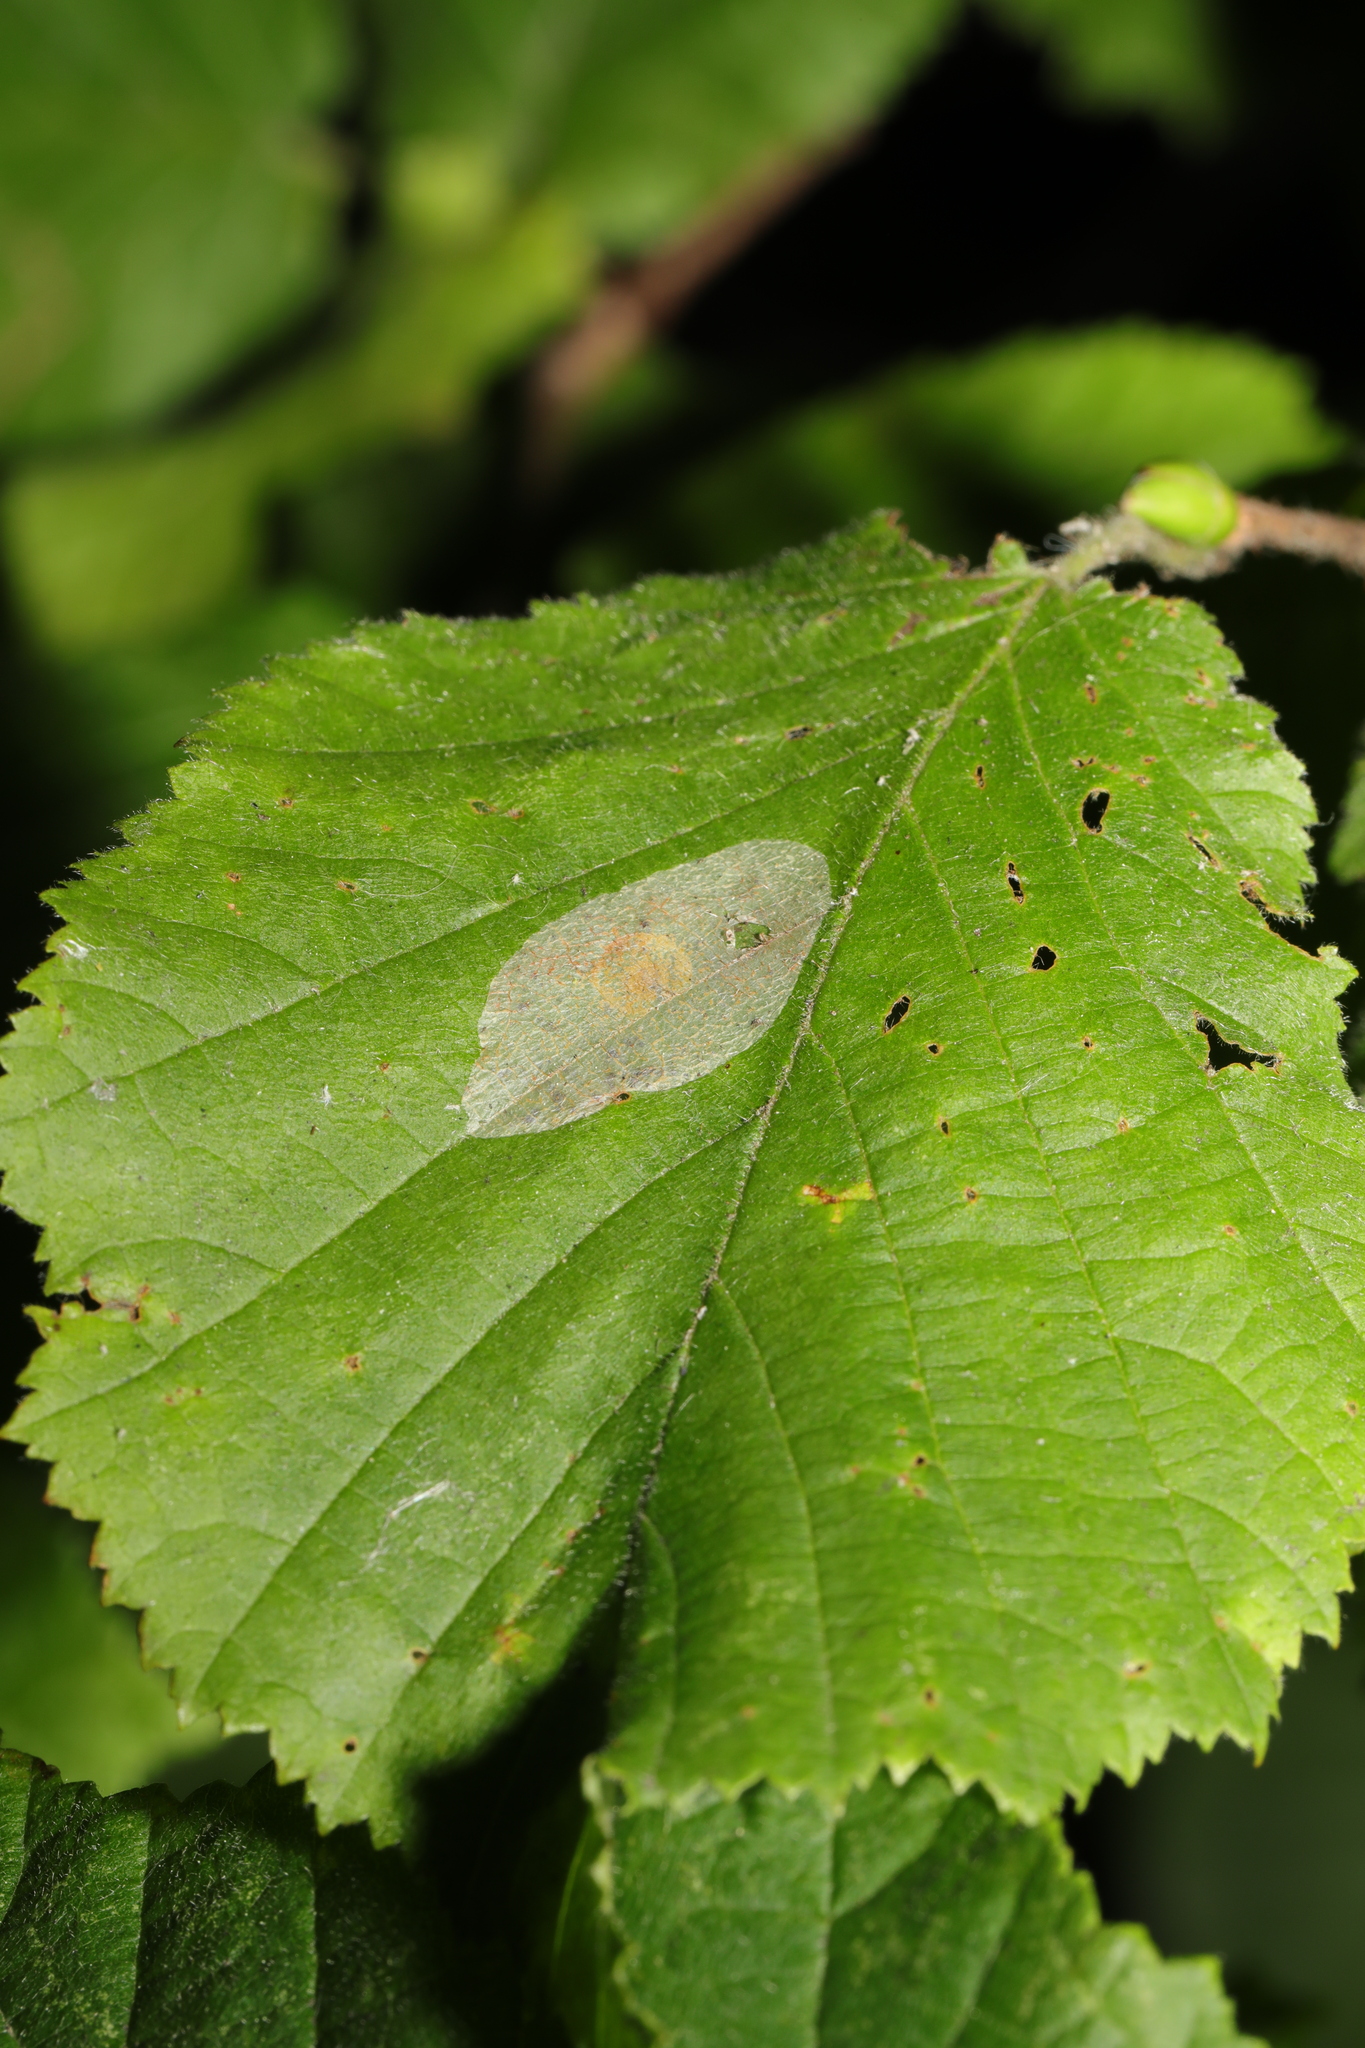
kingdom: Animalia
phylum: Arthropoda
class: Insecta
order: Lepidoptera
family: Gracillariidae
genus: Phyllonorycter
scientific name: Phyllonorycter coryli
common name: Nut-leaf blister moth
